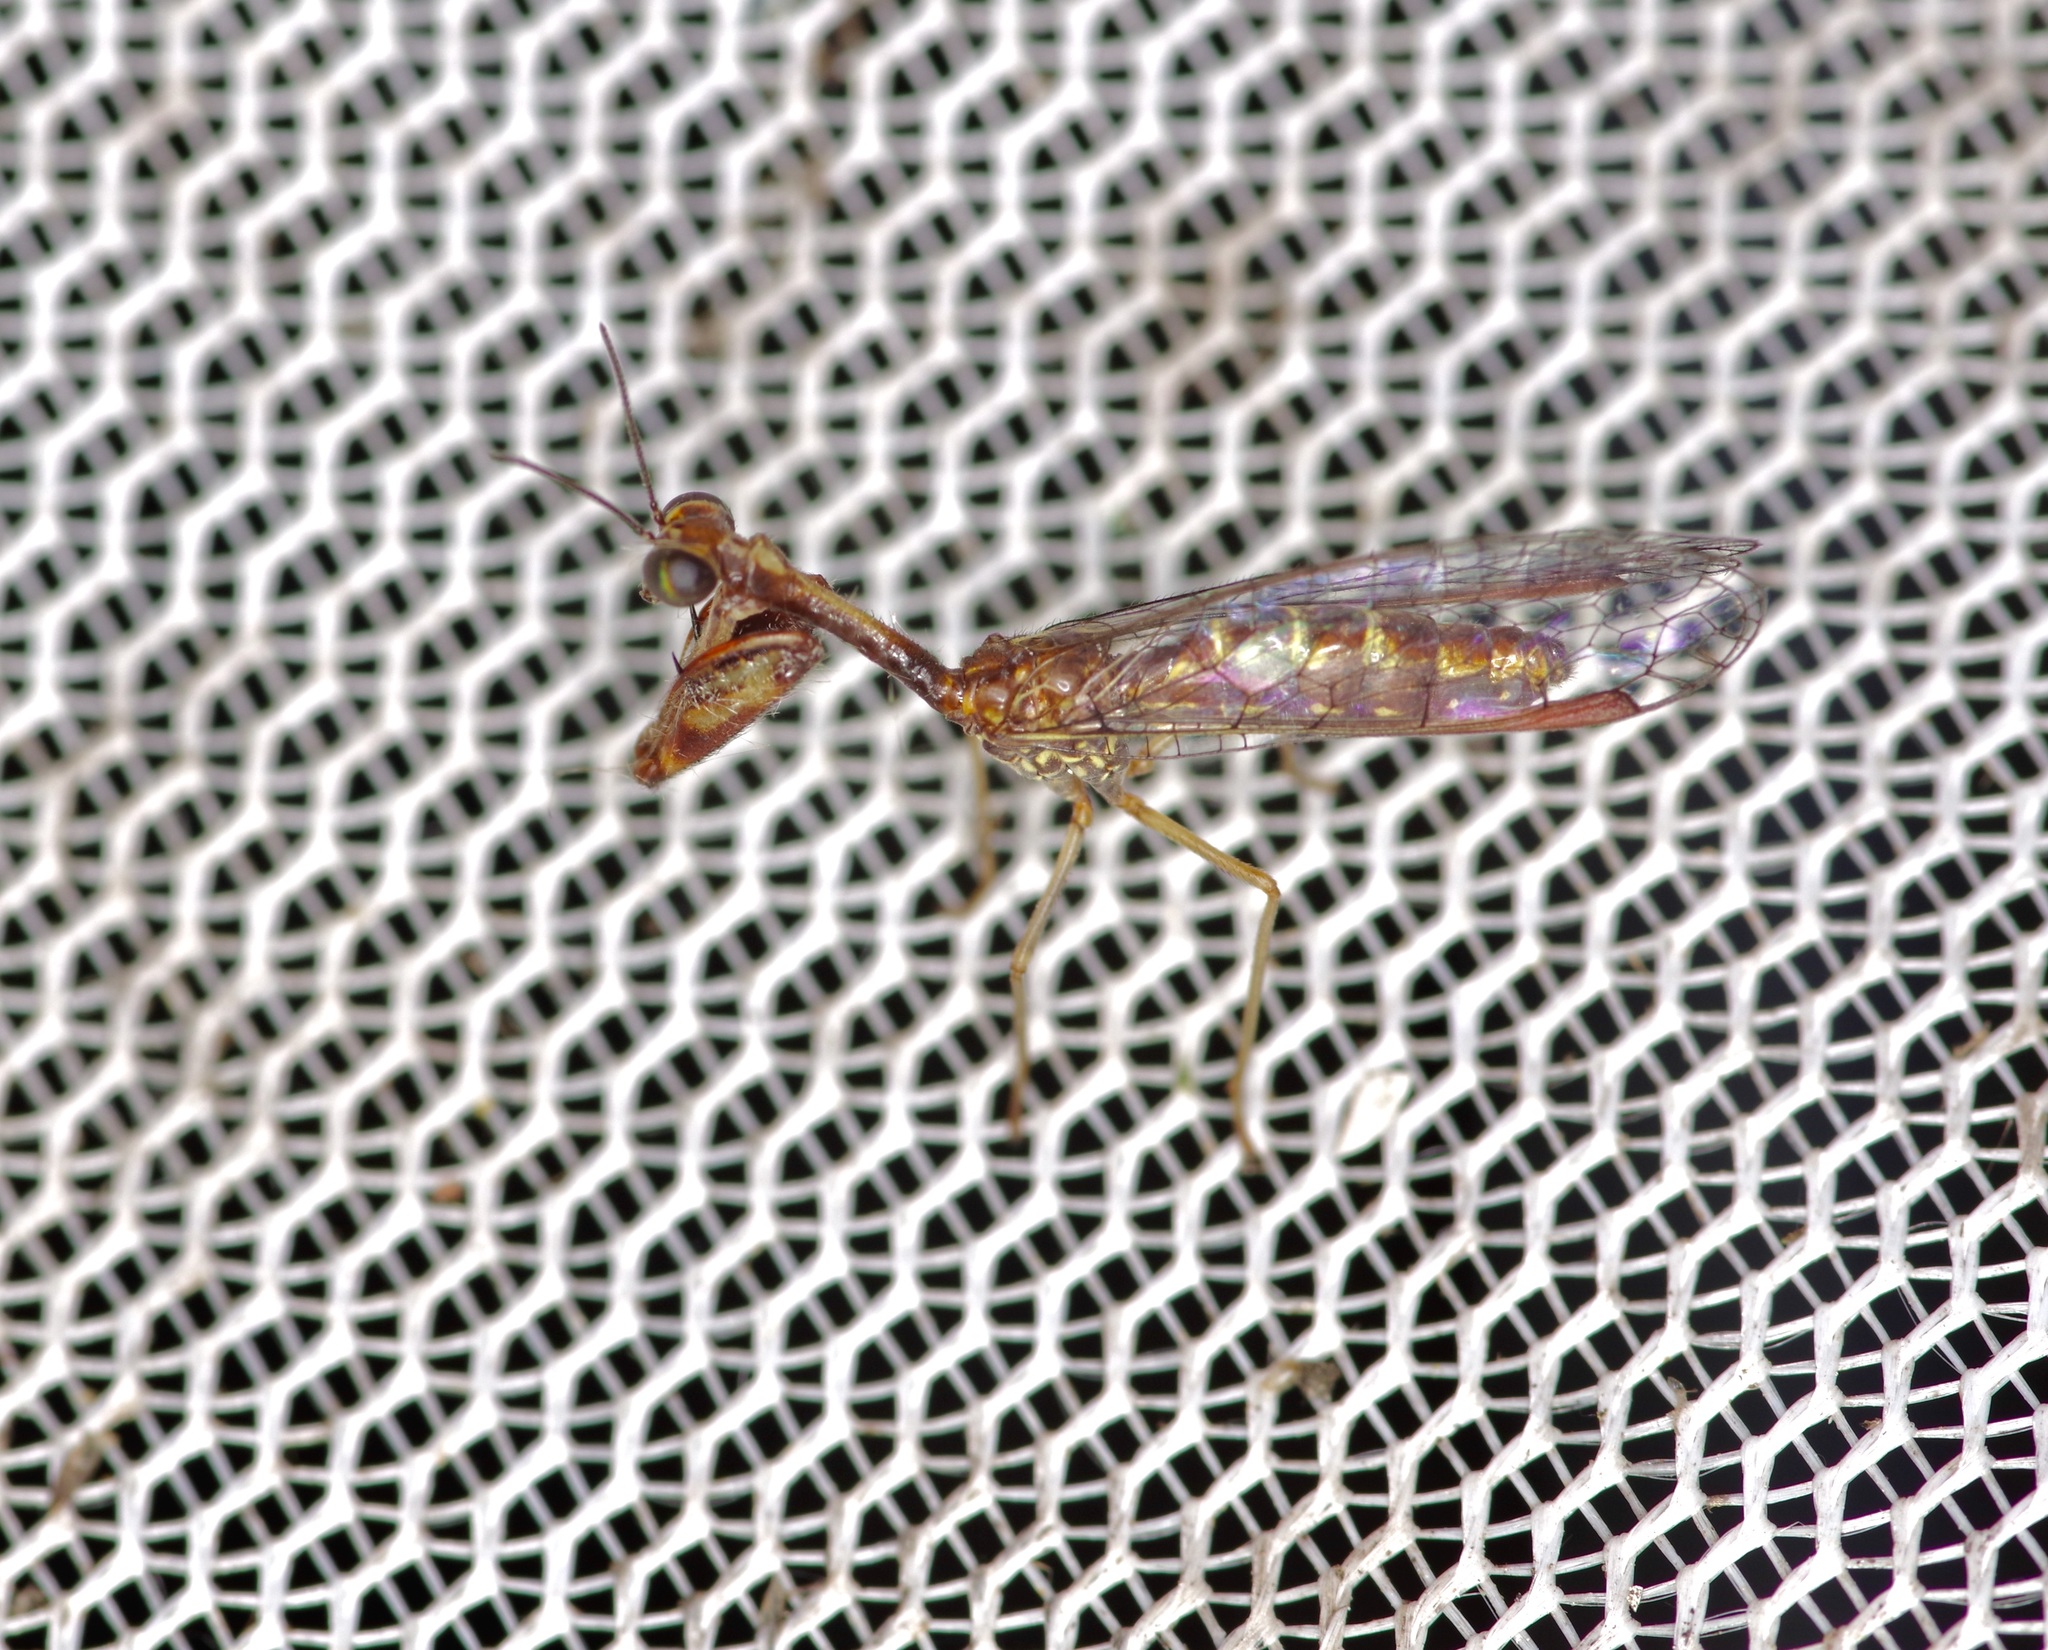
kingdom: Animalia
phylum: Arthropoda
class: Insecta
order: Neuroptera
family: Mantispidae
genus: Leptomantispa
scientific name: Leptomantispa pulchella
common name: Stevens's mantidfly
